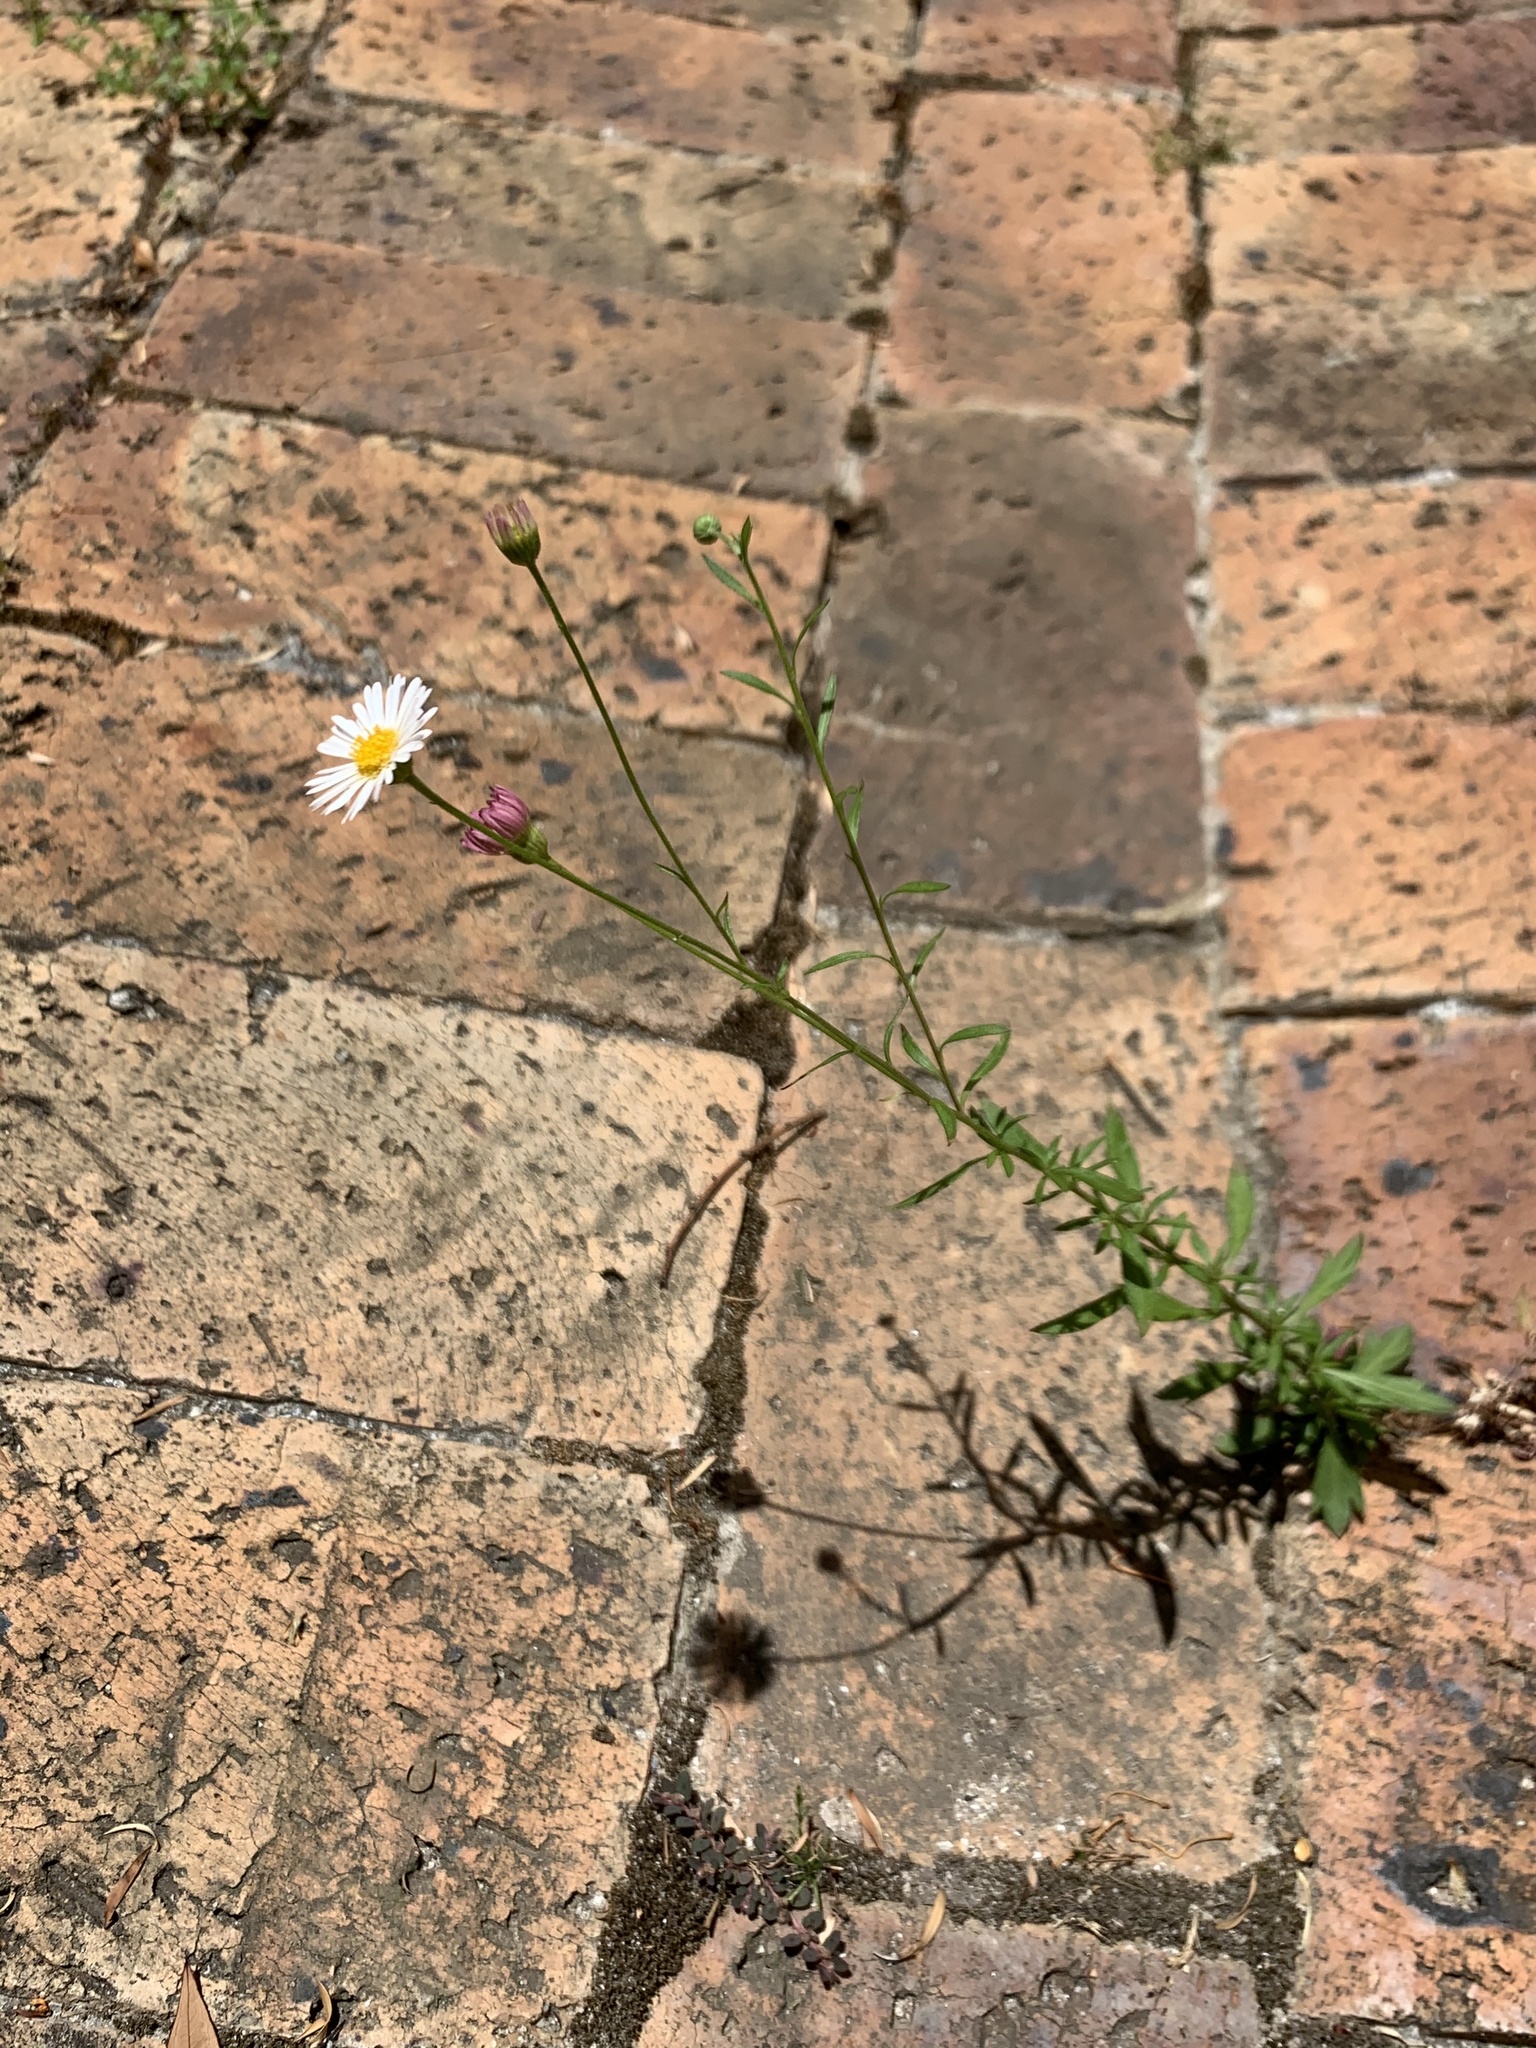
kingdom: Plantae
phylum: Tracheophyta
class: Magnoliopsida
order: Asterales
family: Asteraceae
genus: Erigeron
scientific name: Erigeron karvinskianus
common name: Mexican fleabane
